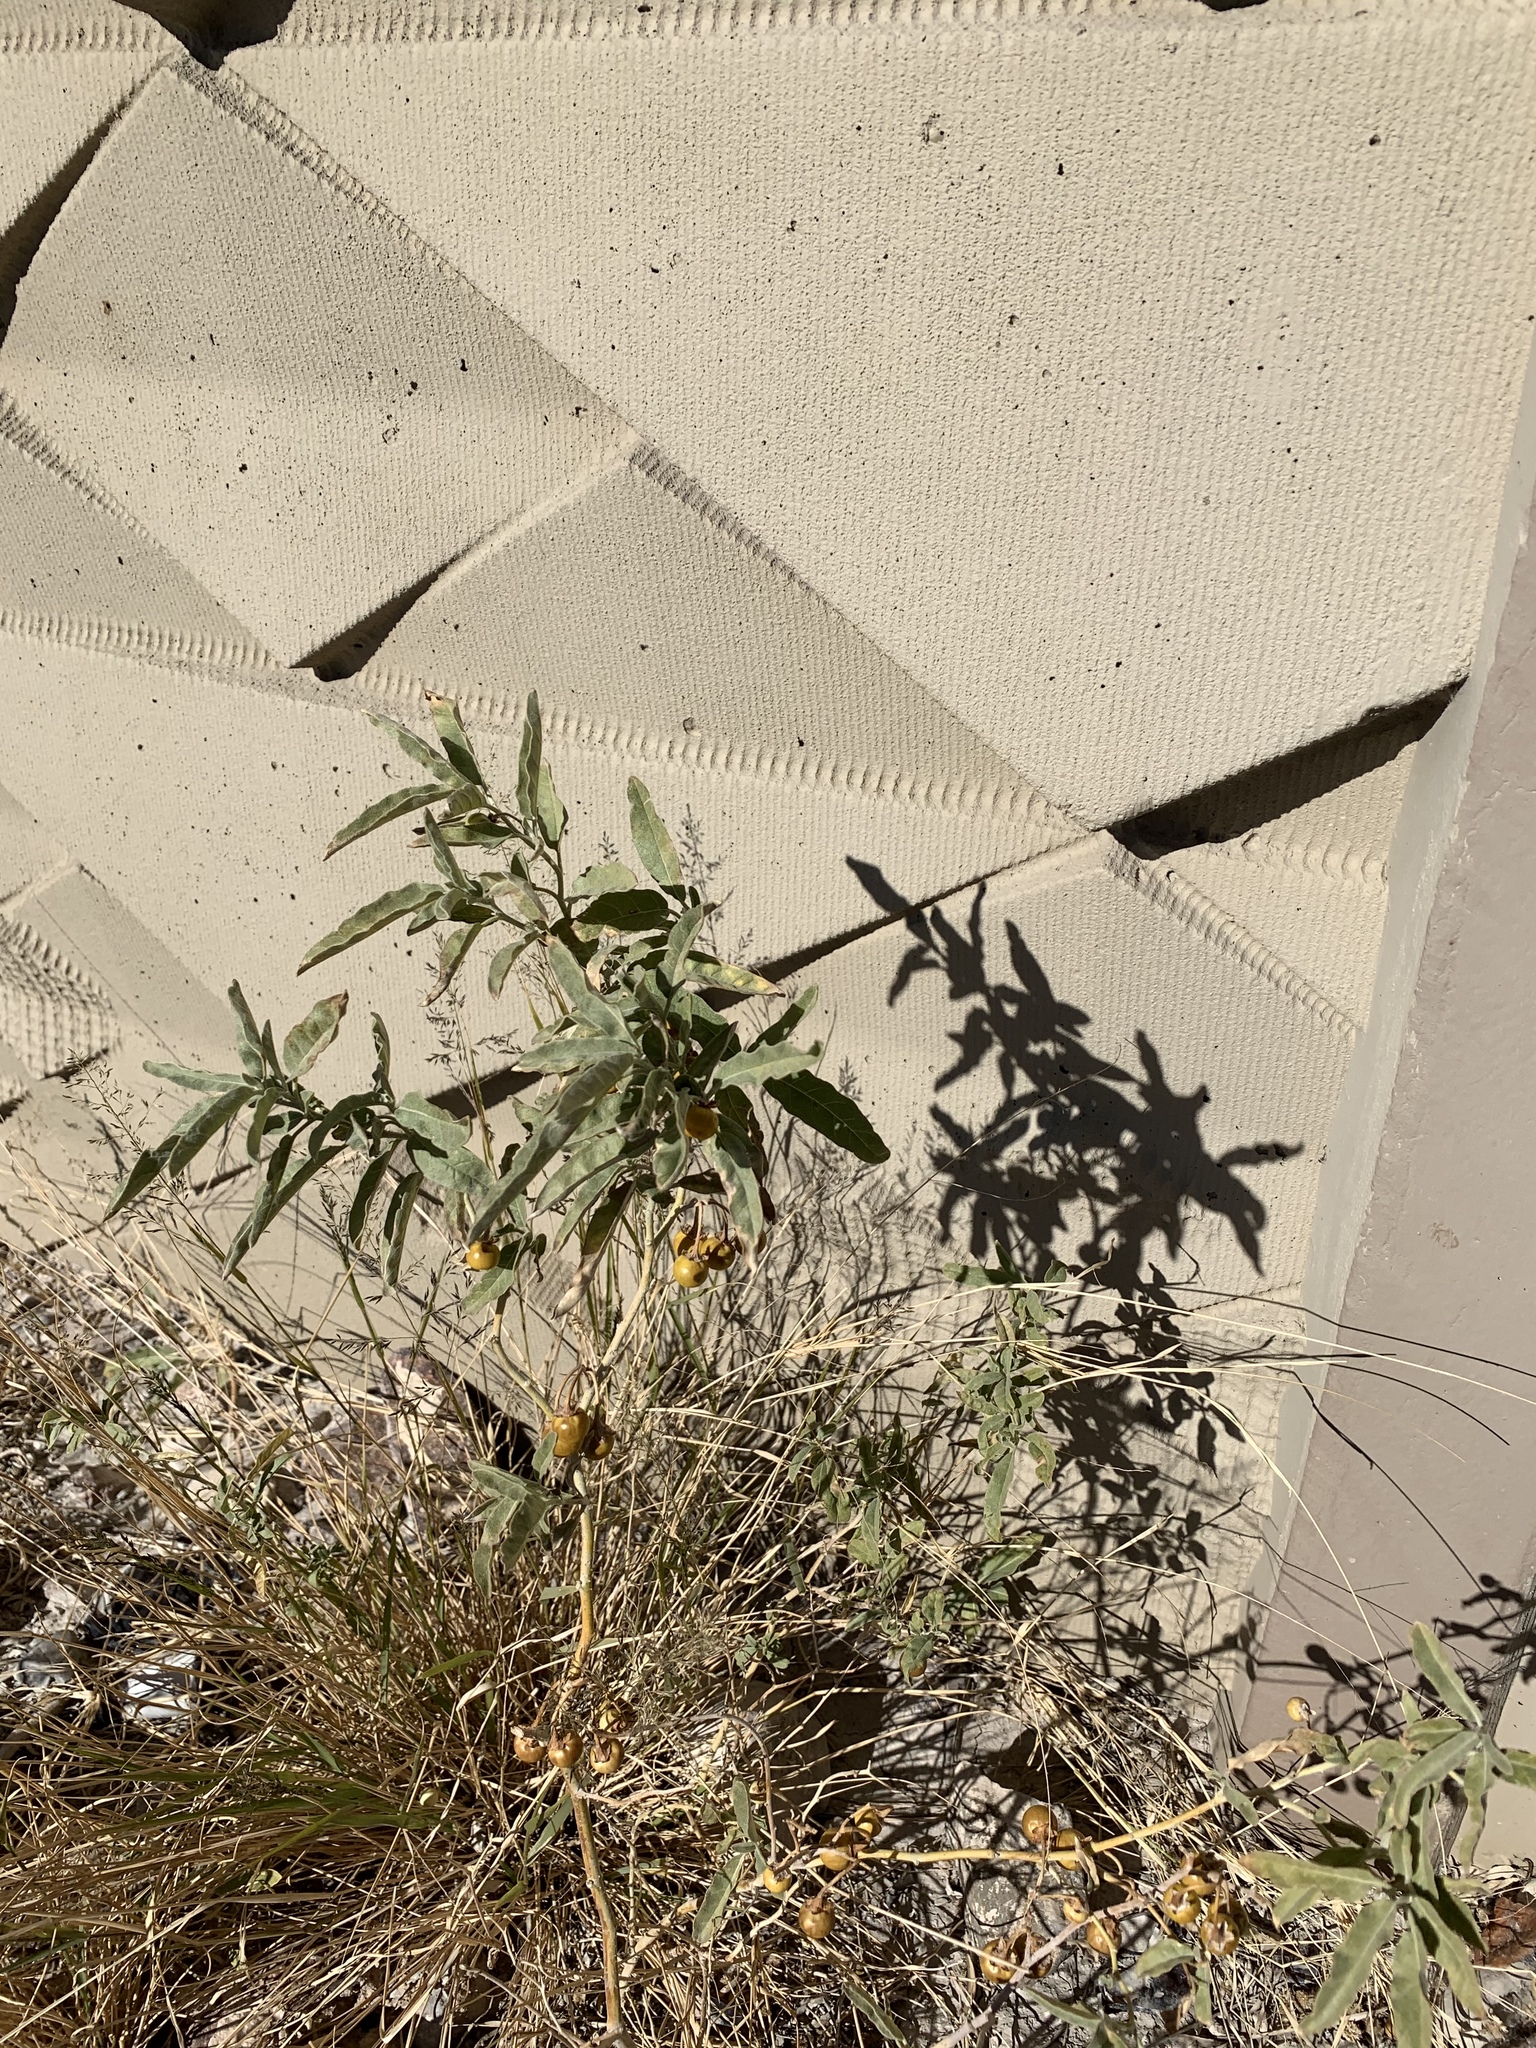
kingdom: Plantae
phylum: Tracheophyta
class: Magnoliopsida
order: Solanales
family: Solanaceae
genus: Solanum
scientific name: Solanum elaeagnifolium
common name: Silverleaf nightshade
